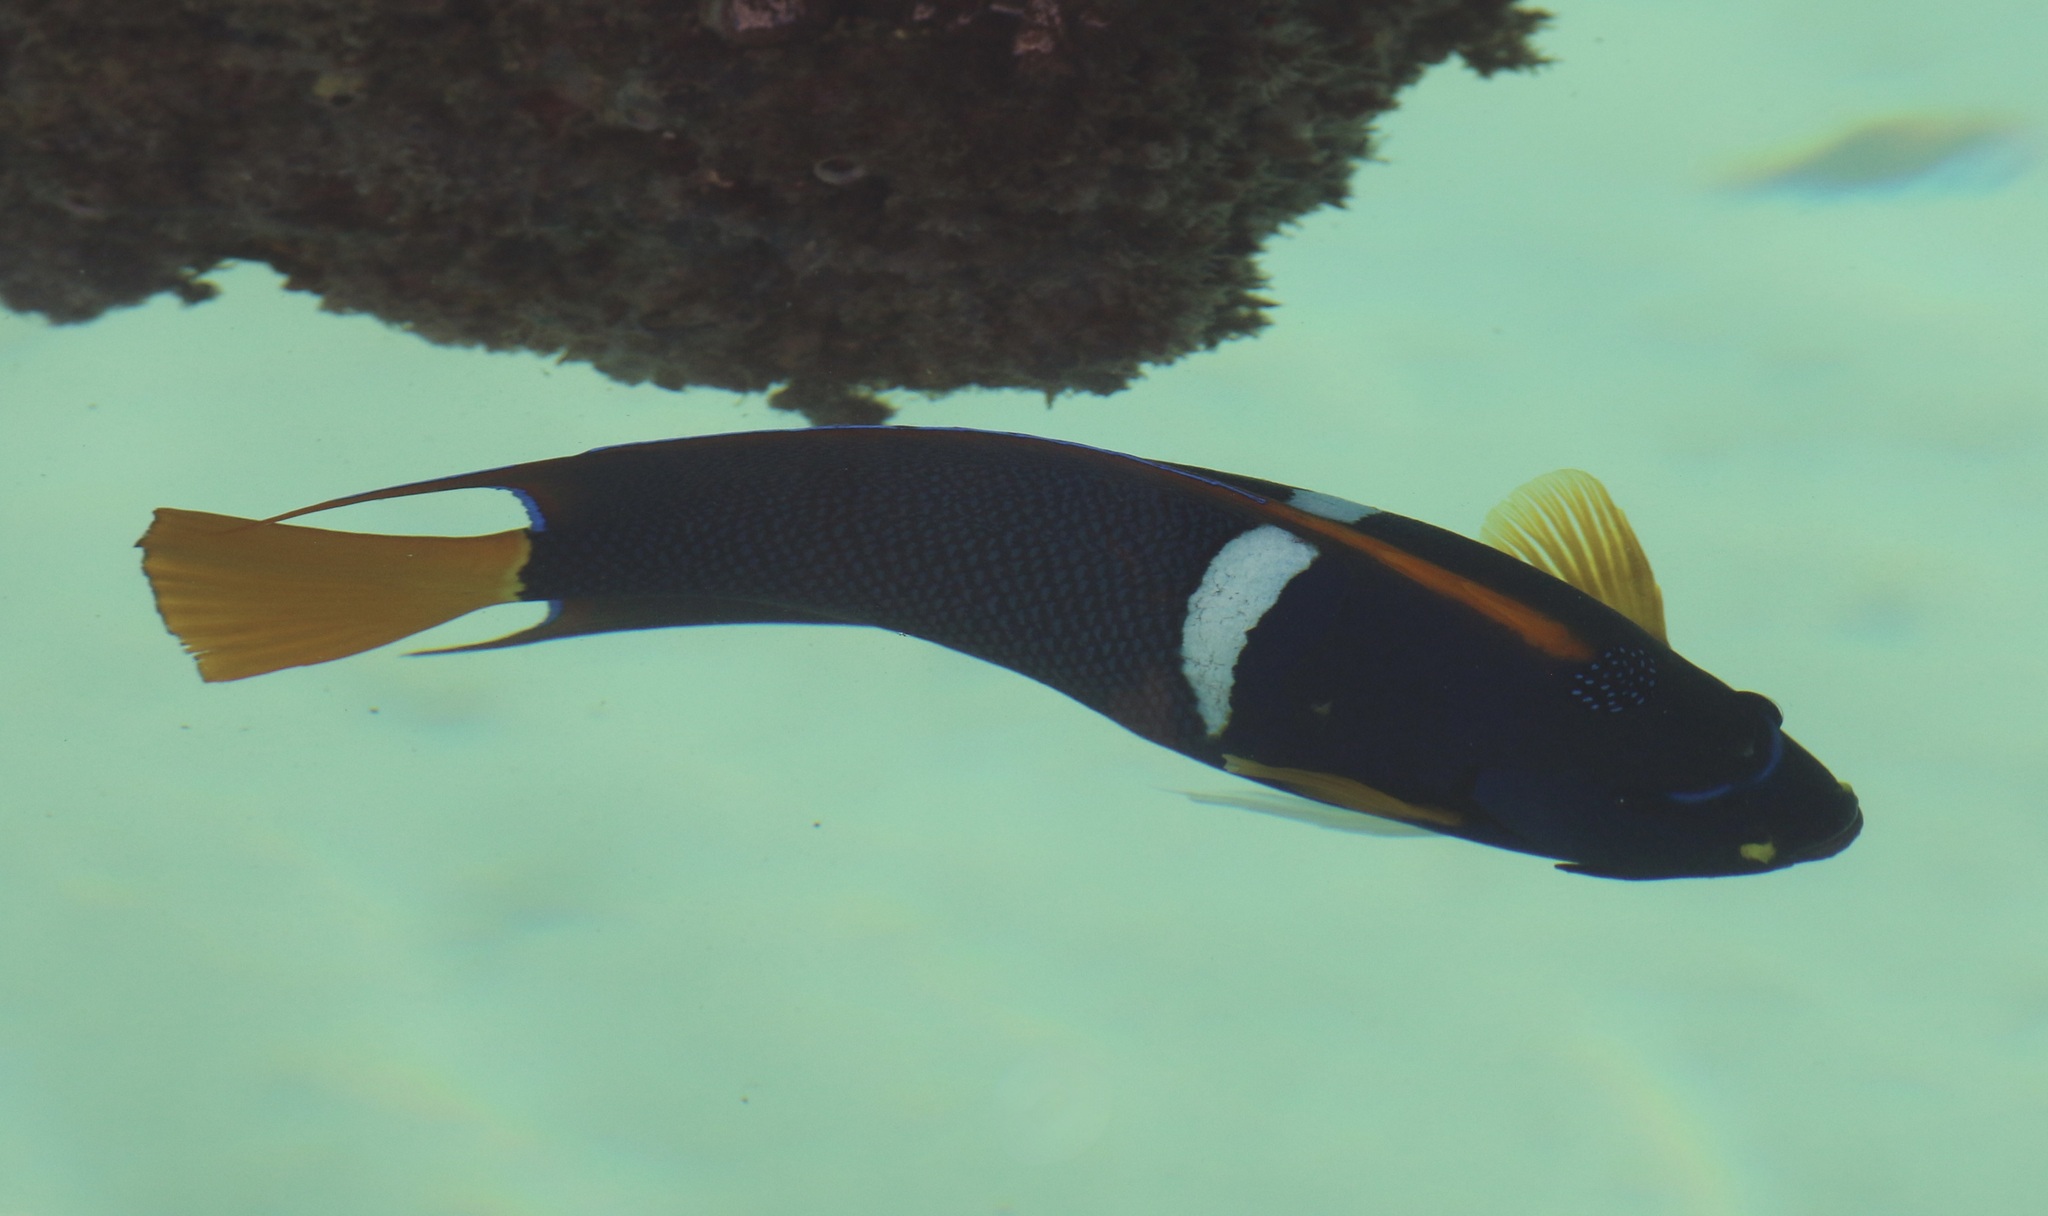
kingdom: Animalia
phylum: Chordata
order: Perciformes
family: Pomacanthidae
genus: Holacanthus
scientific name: Holacanthus passer
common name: King angelfish
